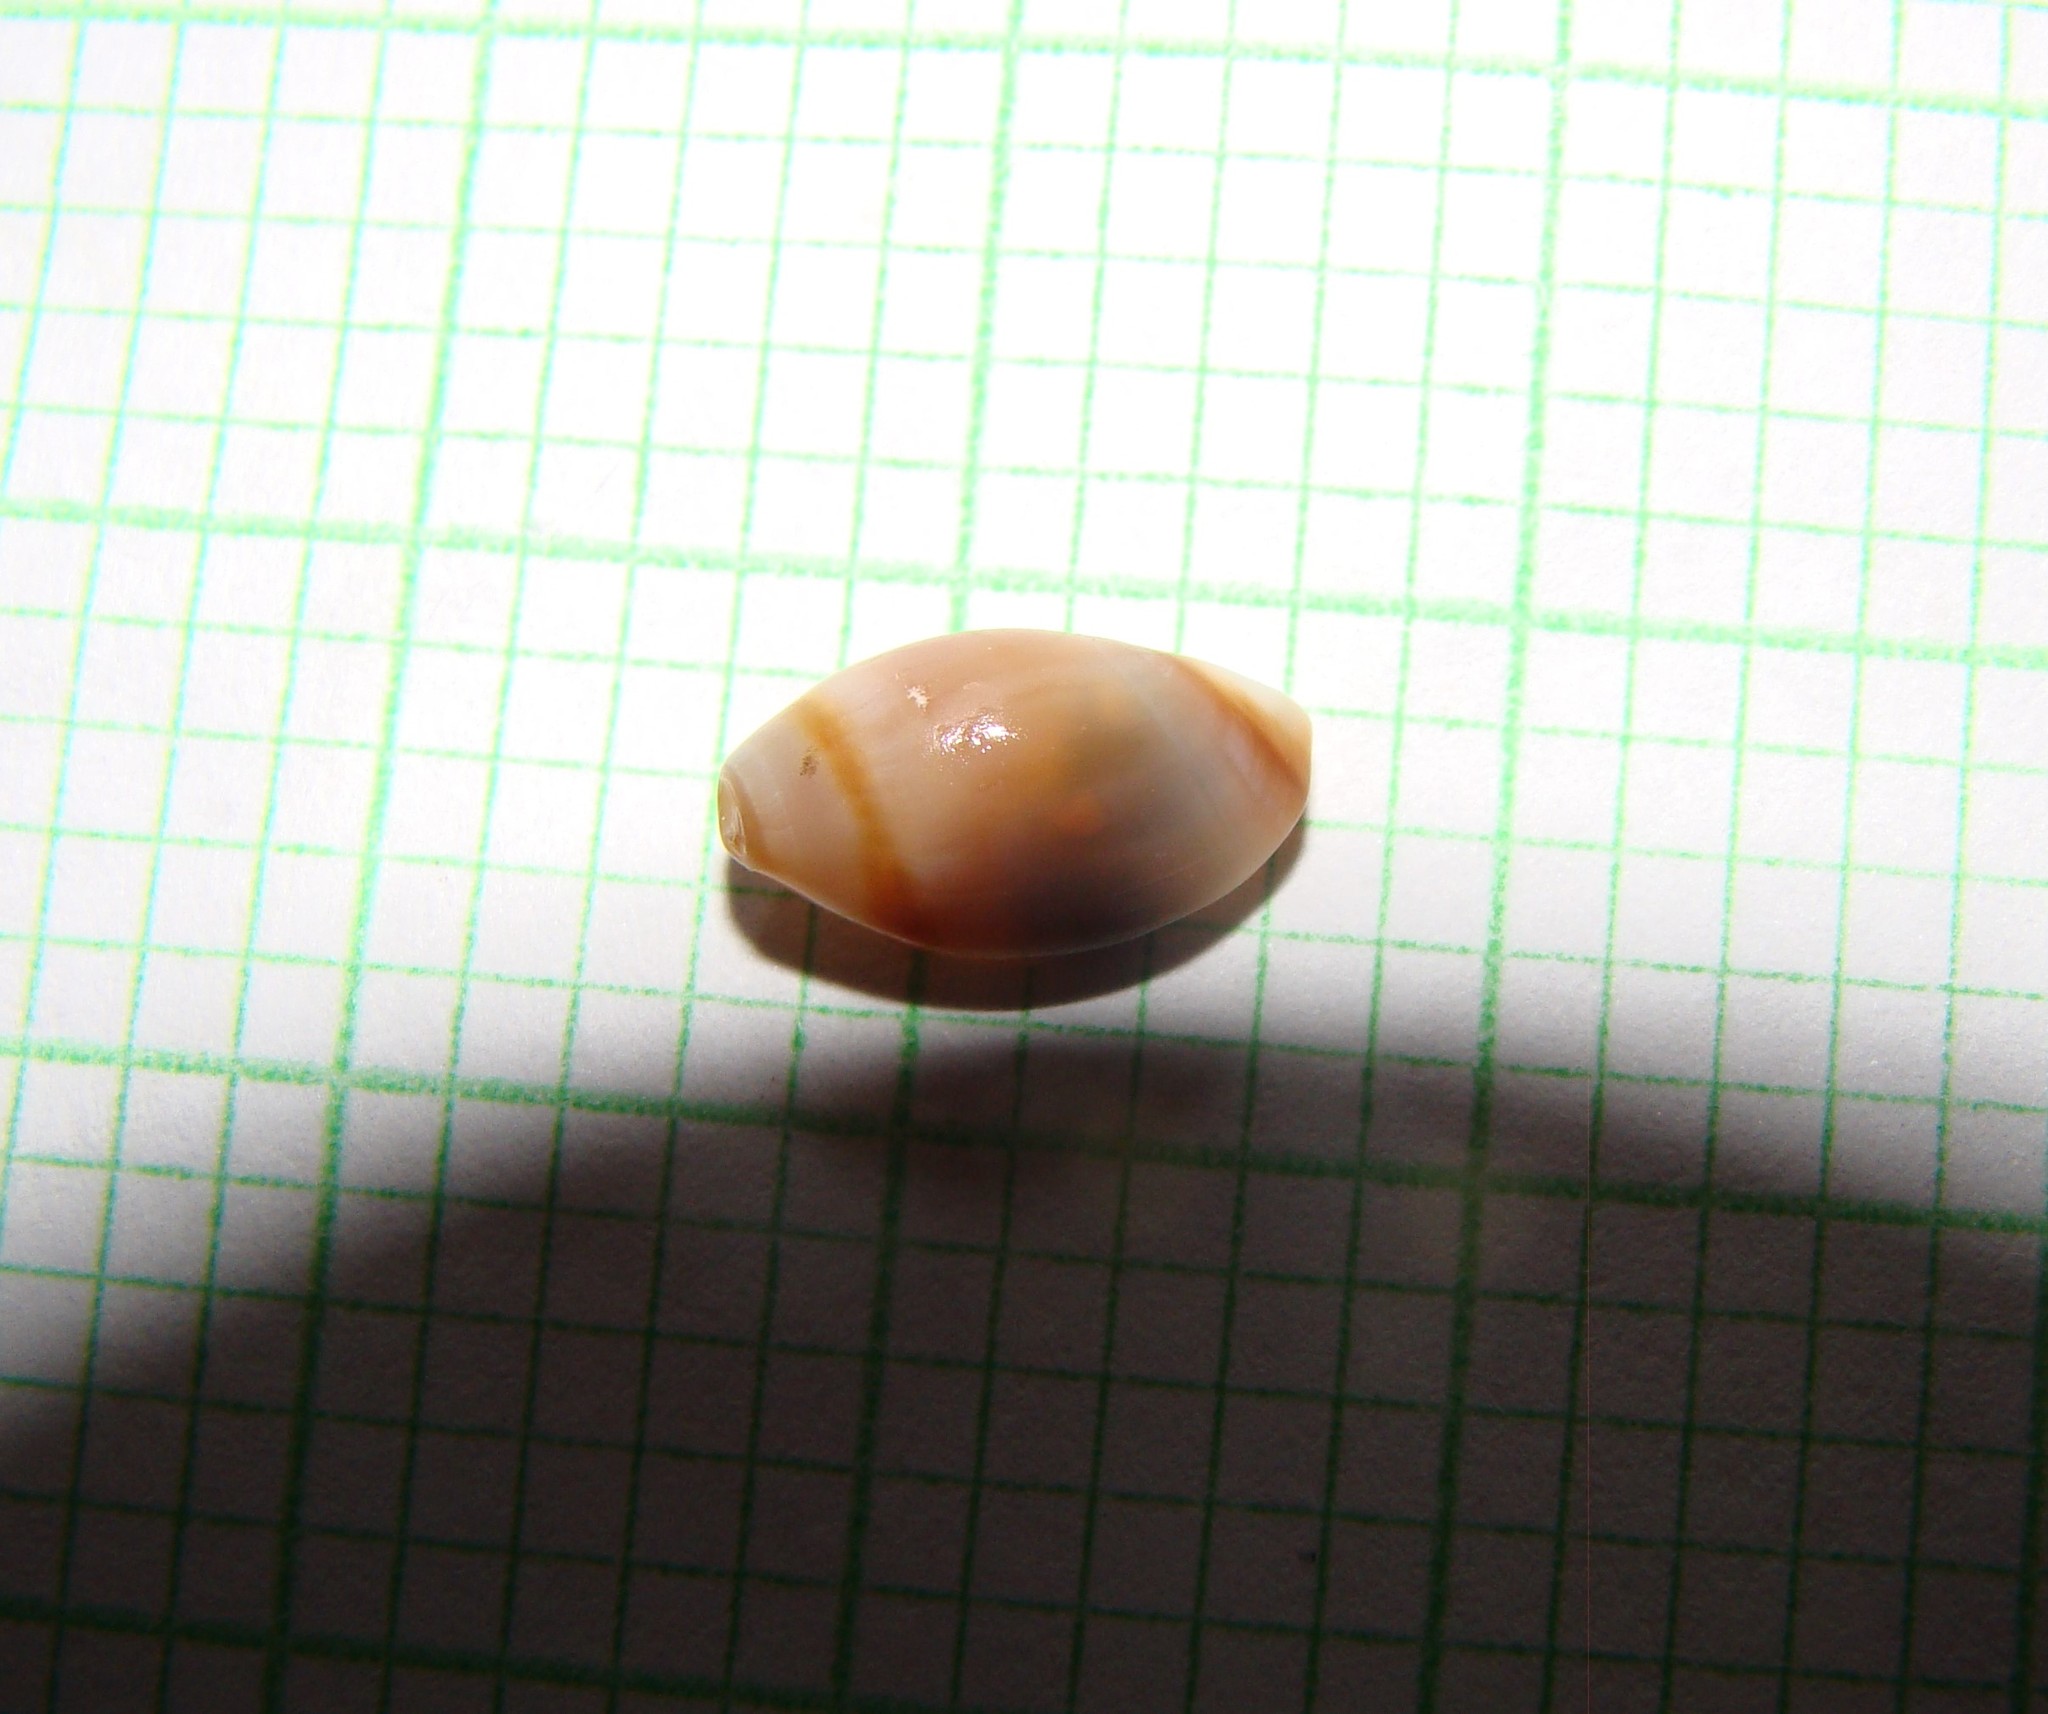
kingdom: Animalia
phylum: Mollusca
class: Gastropoda
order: Neogastropoda
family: Ancillariidae
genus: Amalda
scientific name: Amalda depressa
